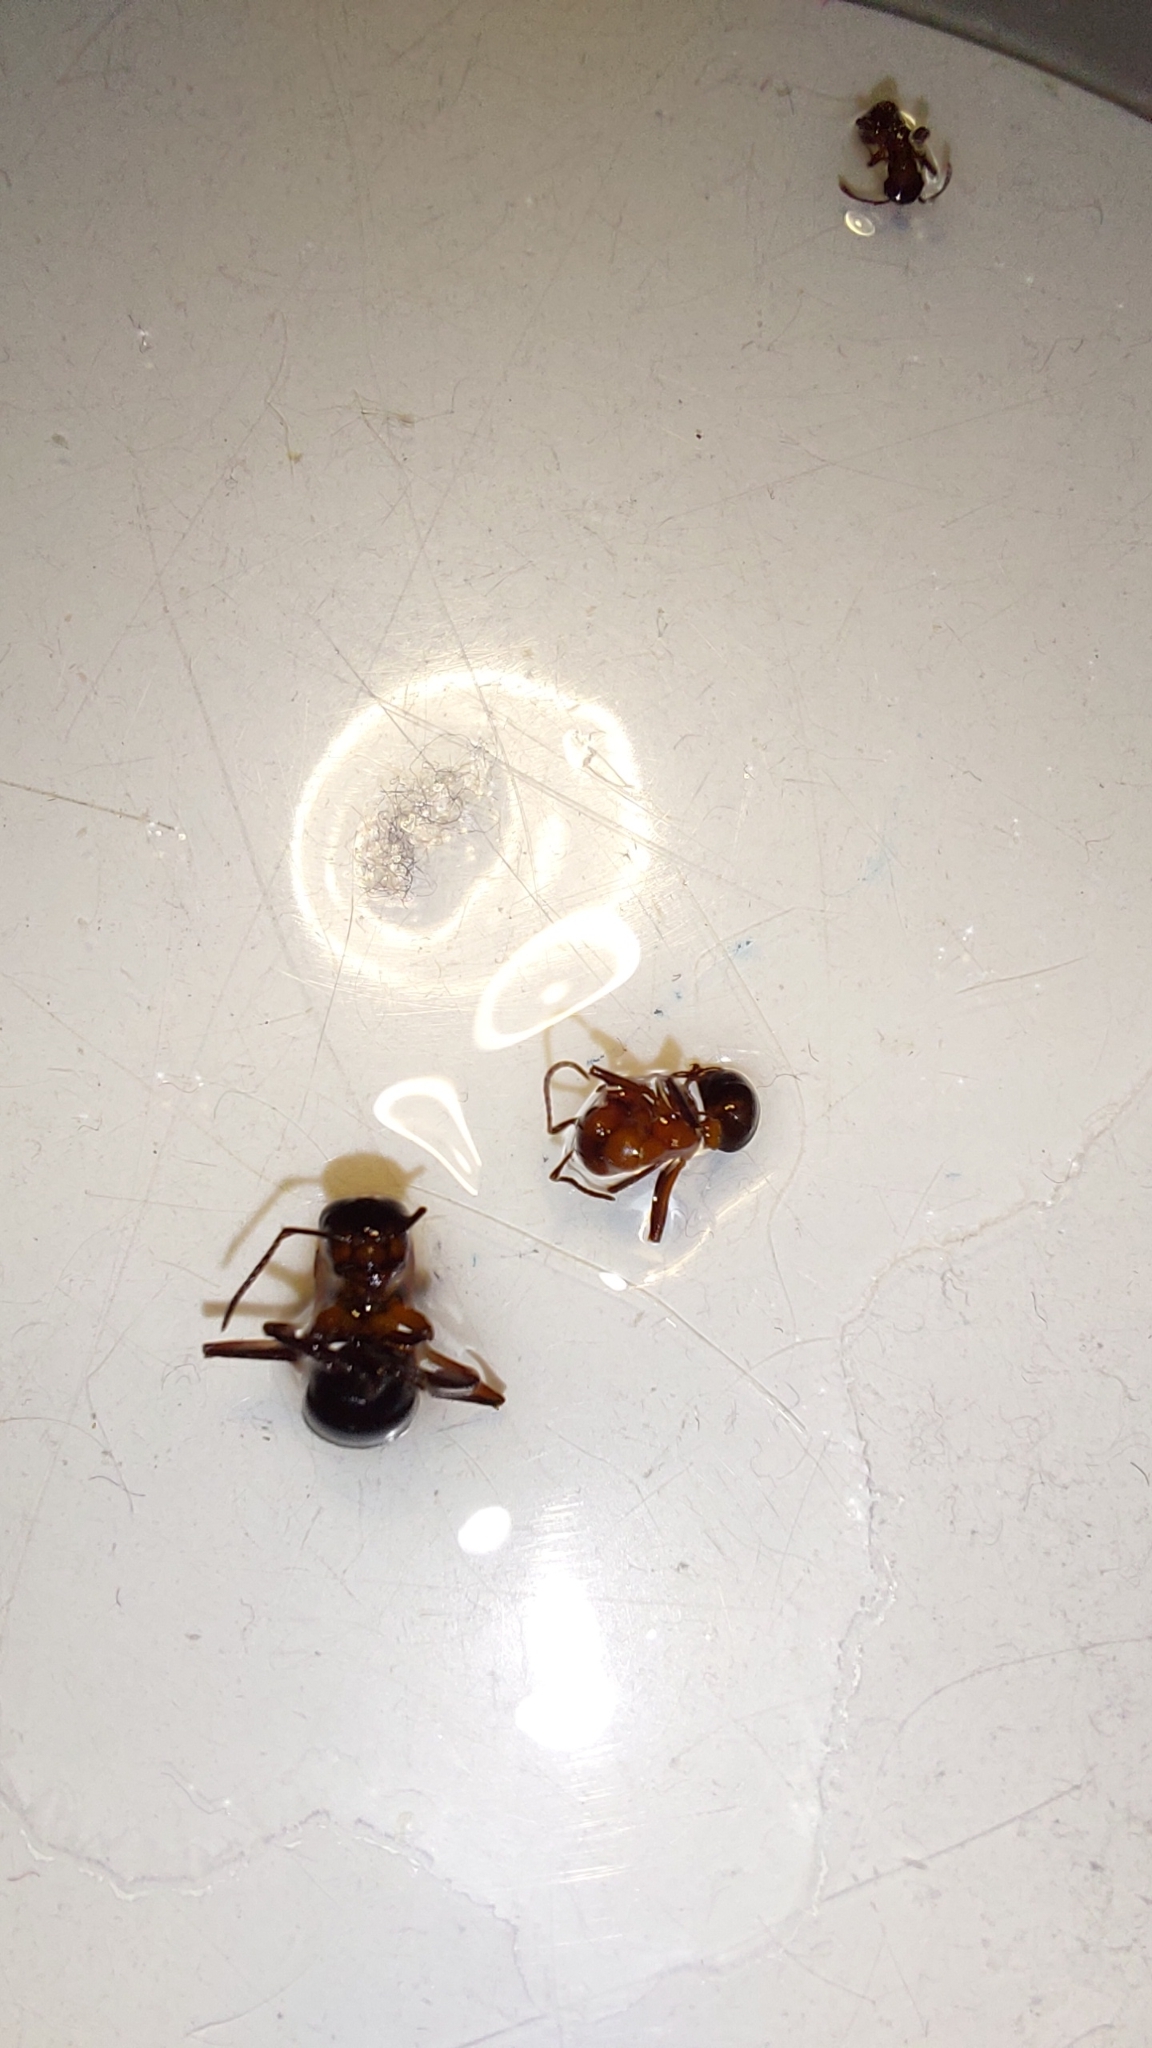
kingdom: Animalia
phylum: Arthropoda
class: Insecta
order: Hymenoptera
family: Formicidae
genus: Formica
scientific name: Formica sanguinea
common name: Blood-red ant
